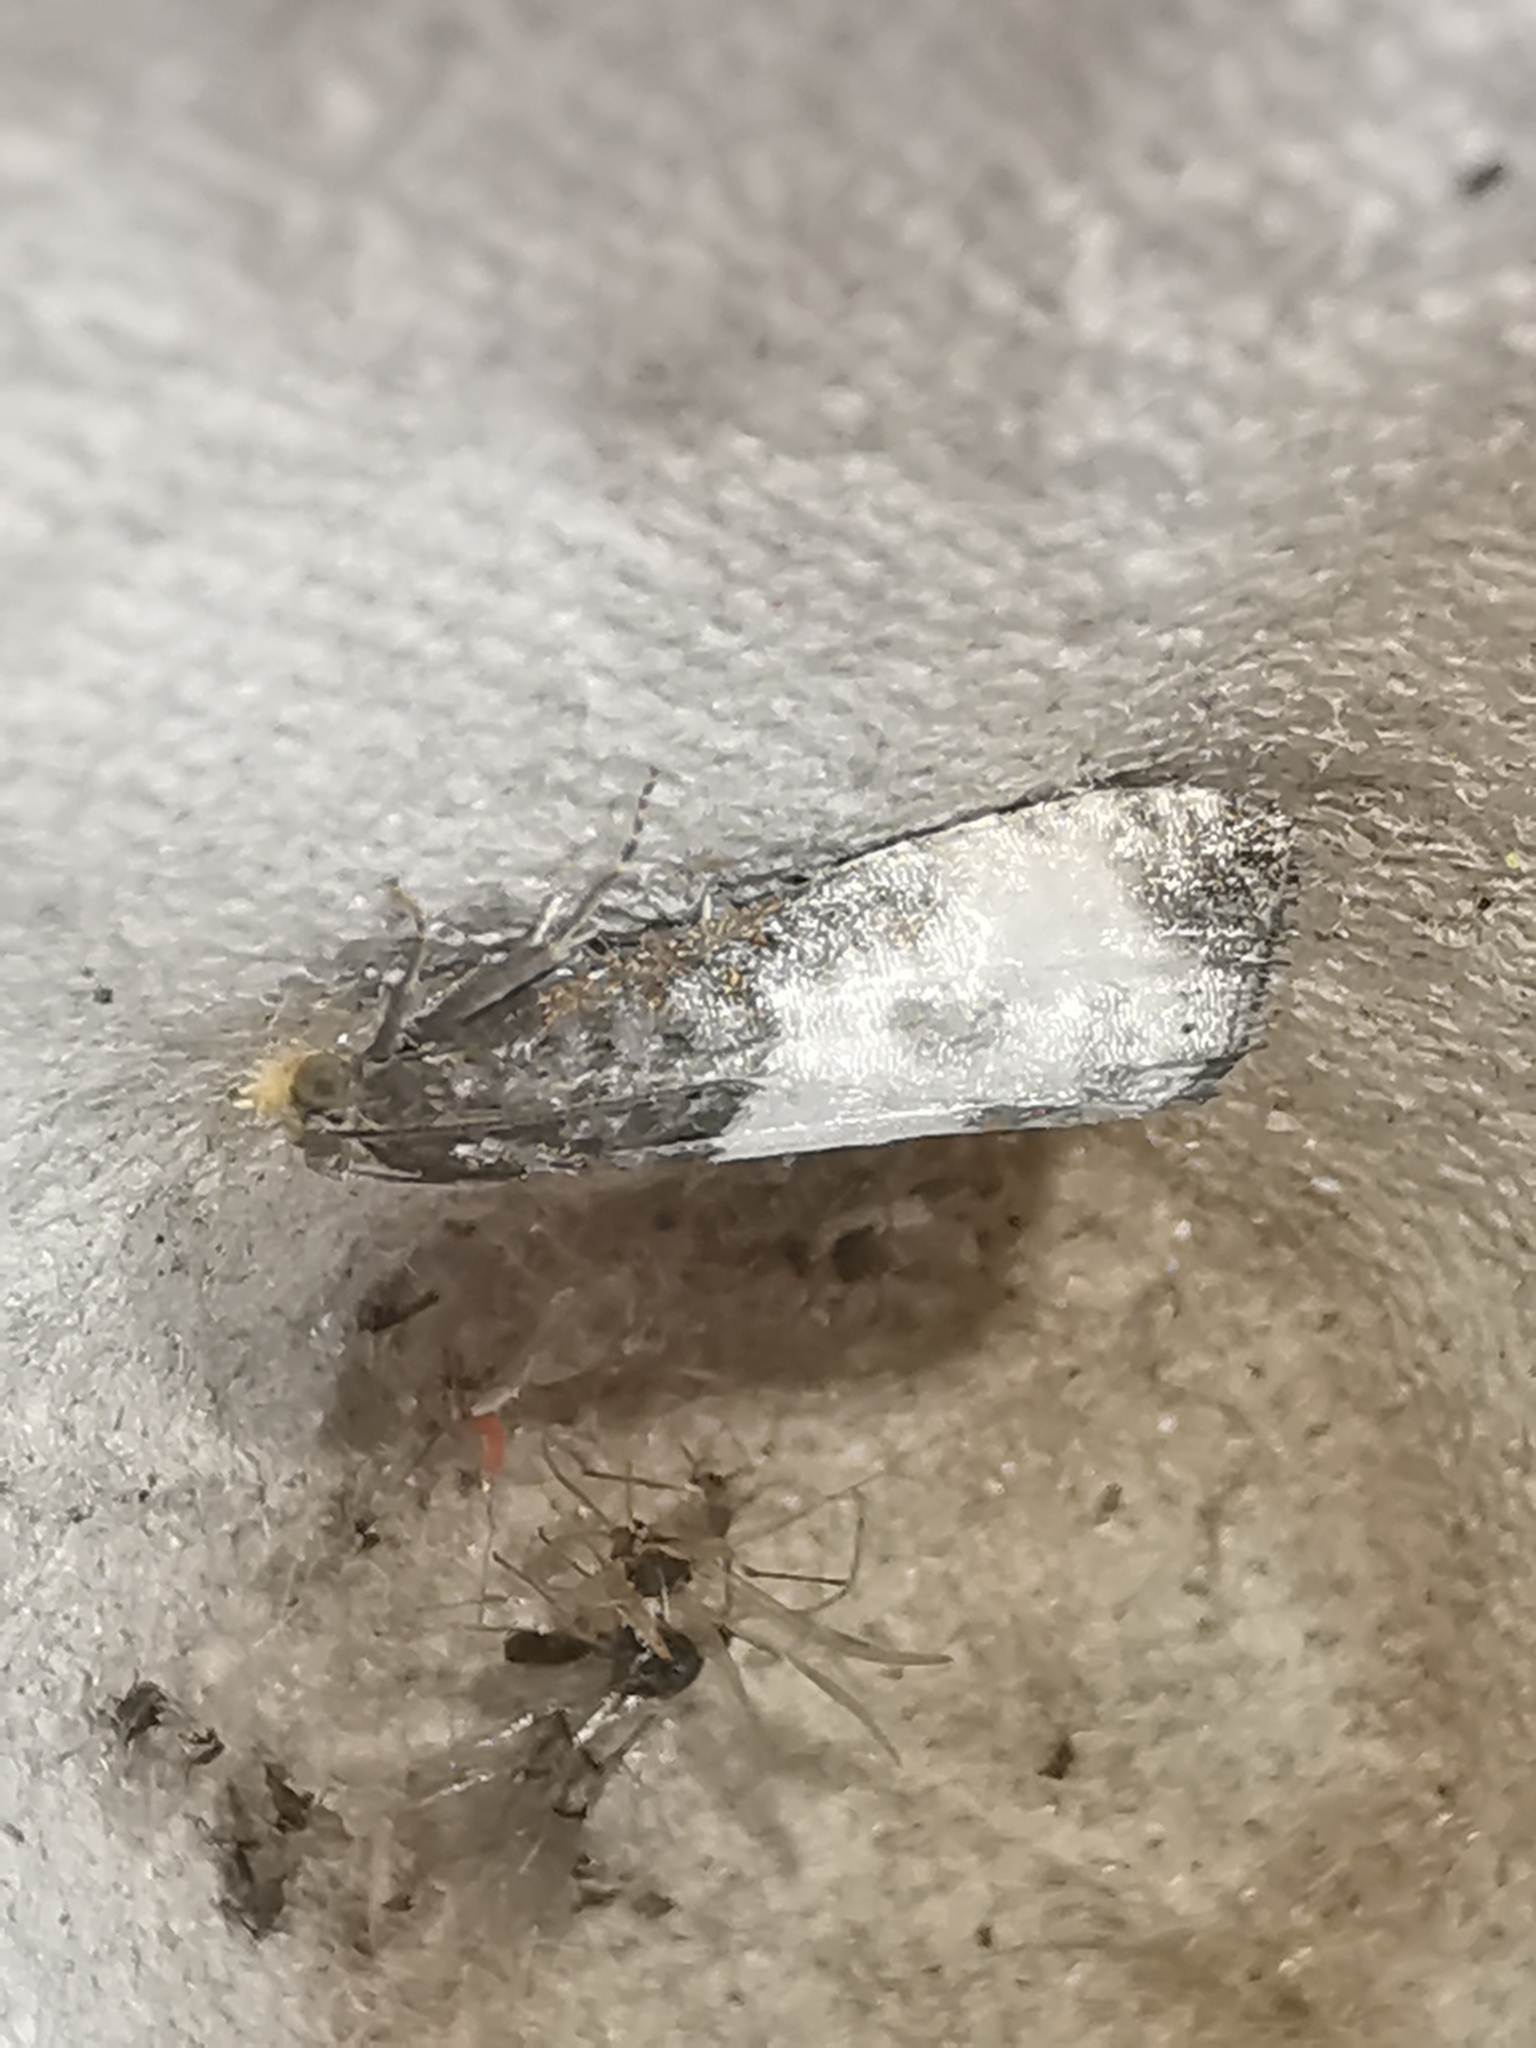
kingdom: Animalia
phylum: Arthropoda
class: Insecta
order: Lepidoptera
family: Tortricidae
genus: Notocelia
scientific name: Notocelia cynosbatella
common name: Yellow-faced bell moth
